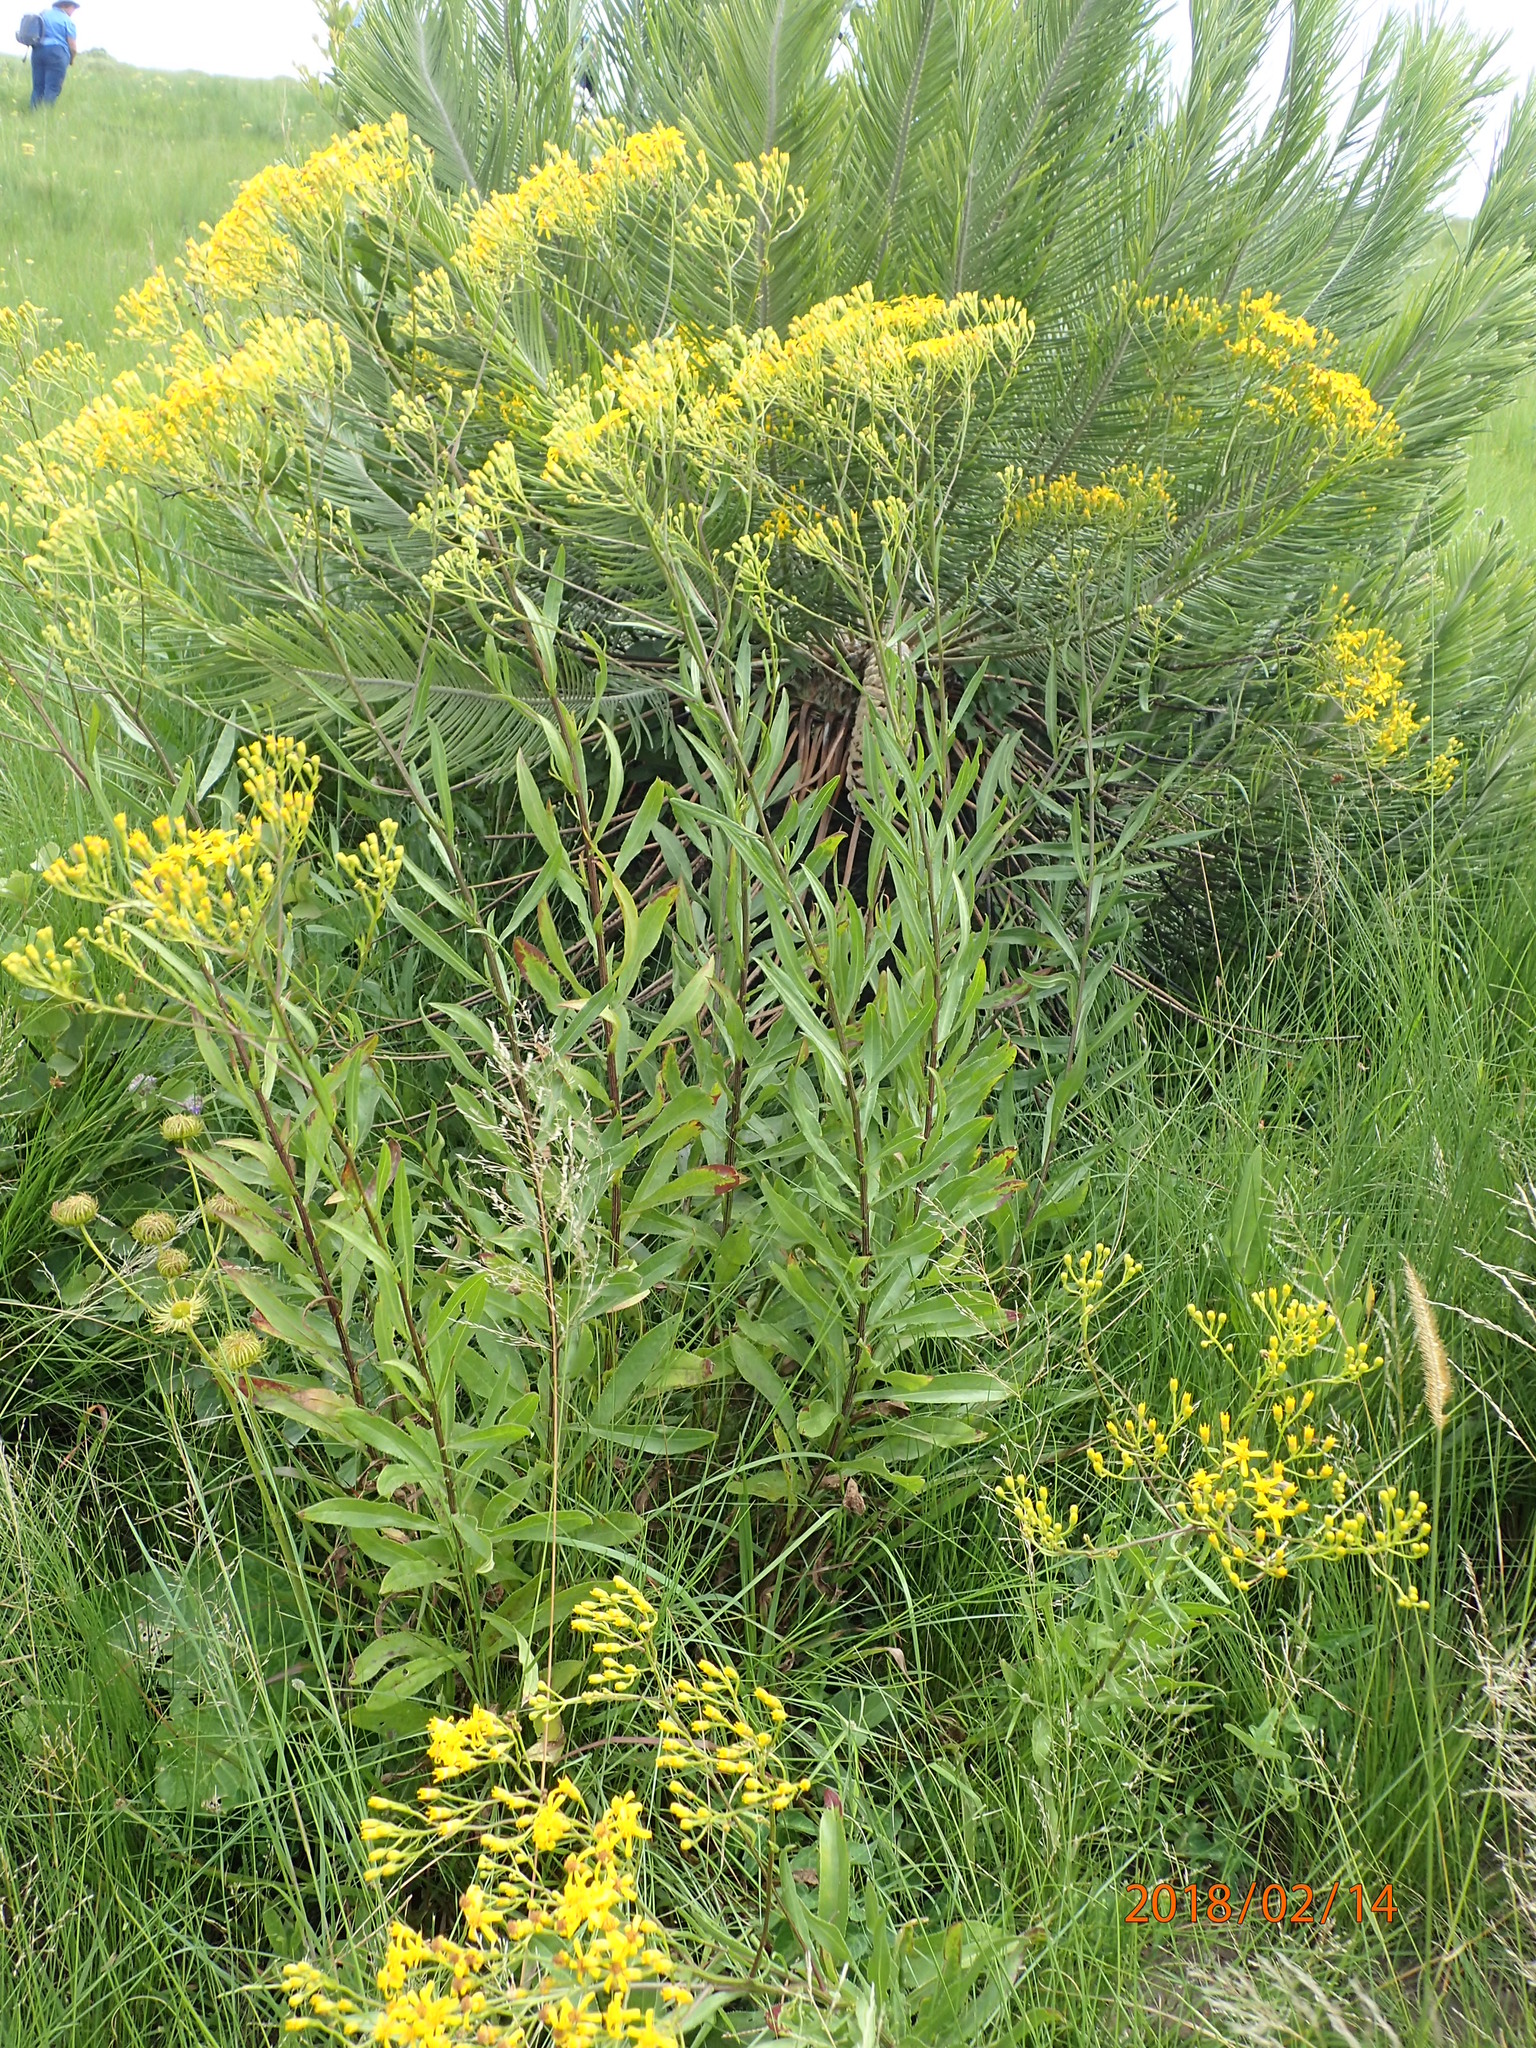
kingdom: Plantae
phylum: Tracheophyta
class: Magnoliopsida
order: Asterales
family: Asteraceae
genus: Senecio
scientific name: Senecio digitalifolius
